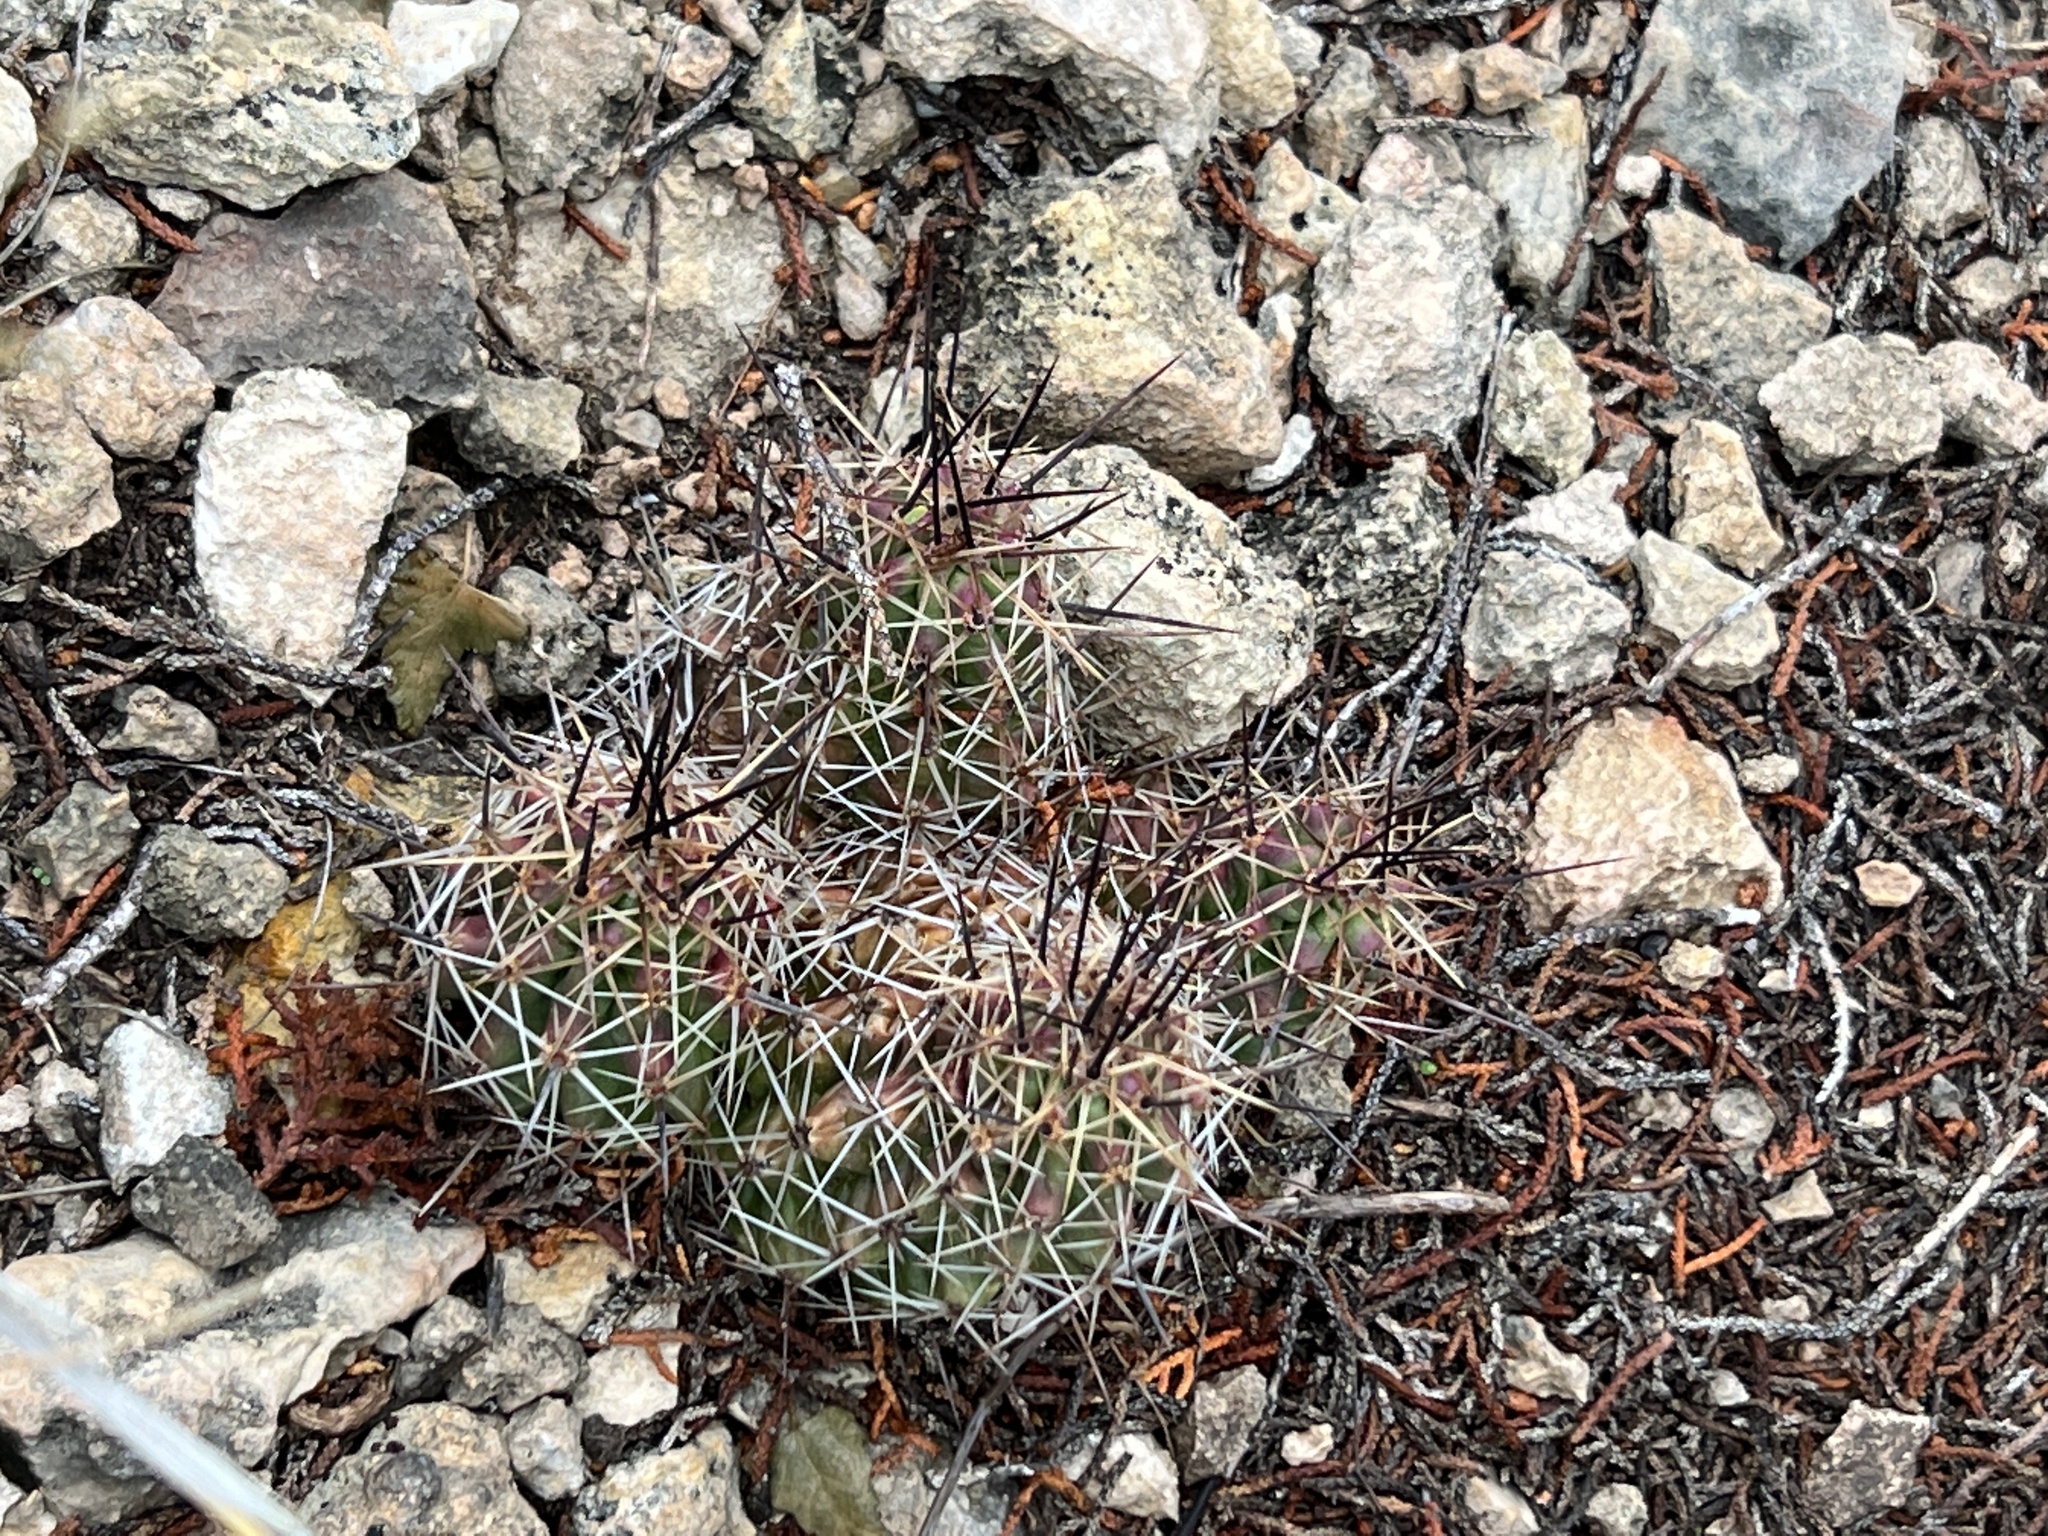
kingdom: Plantae
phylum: Tracheophyta
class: Magnoliopsida
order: Caryophyllales
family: Cactaceae
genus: Echinocereus
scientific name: Echinocereus enneacanthus
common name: Pitaya
